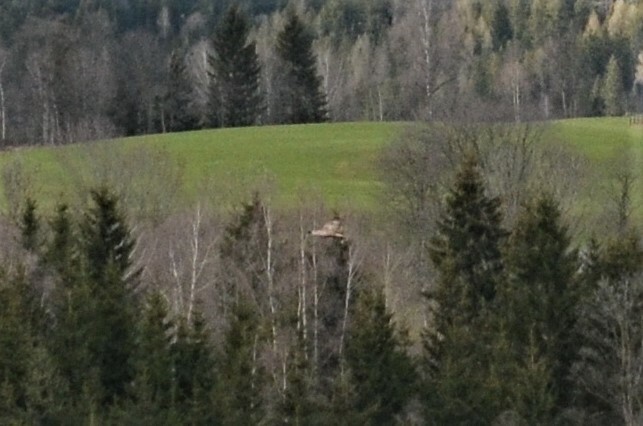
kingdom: Animalia
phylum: Chordata
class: Aves
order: Accipitriformes
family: Accipitridae
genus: Buteo
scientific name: Buteo buteo
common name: Common buzzard
